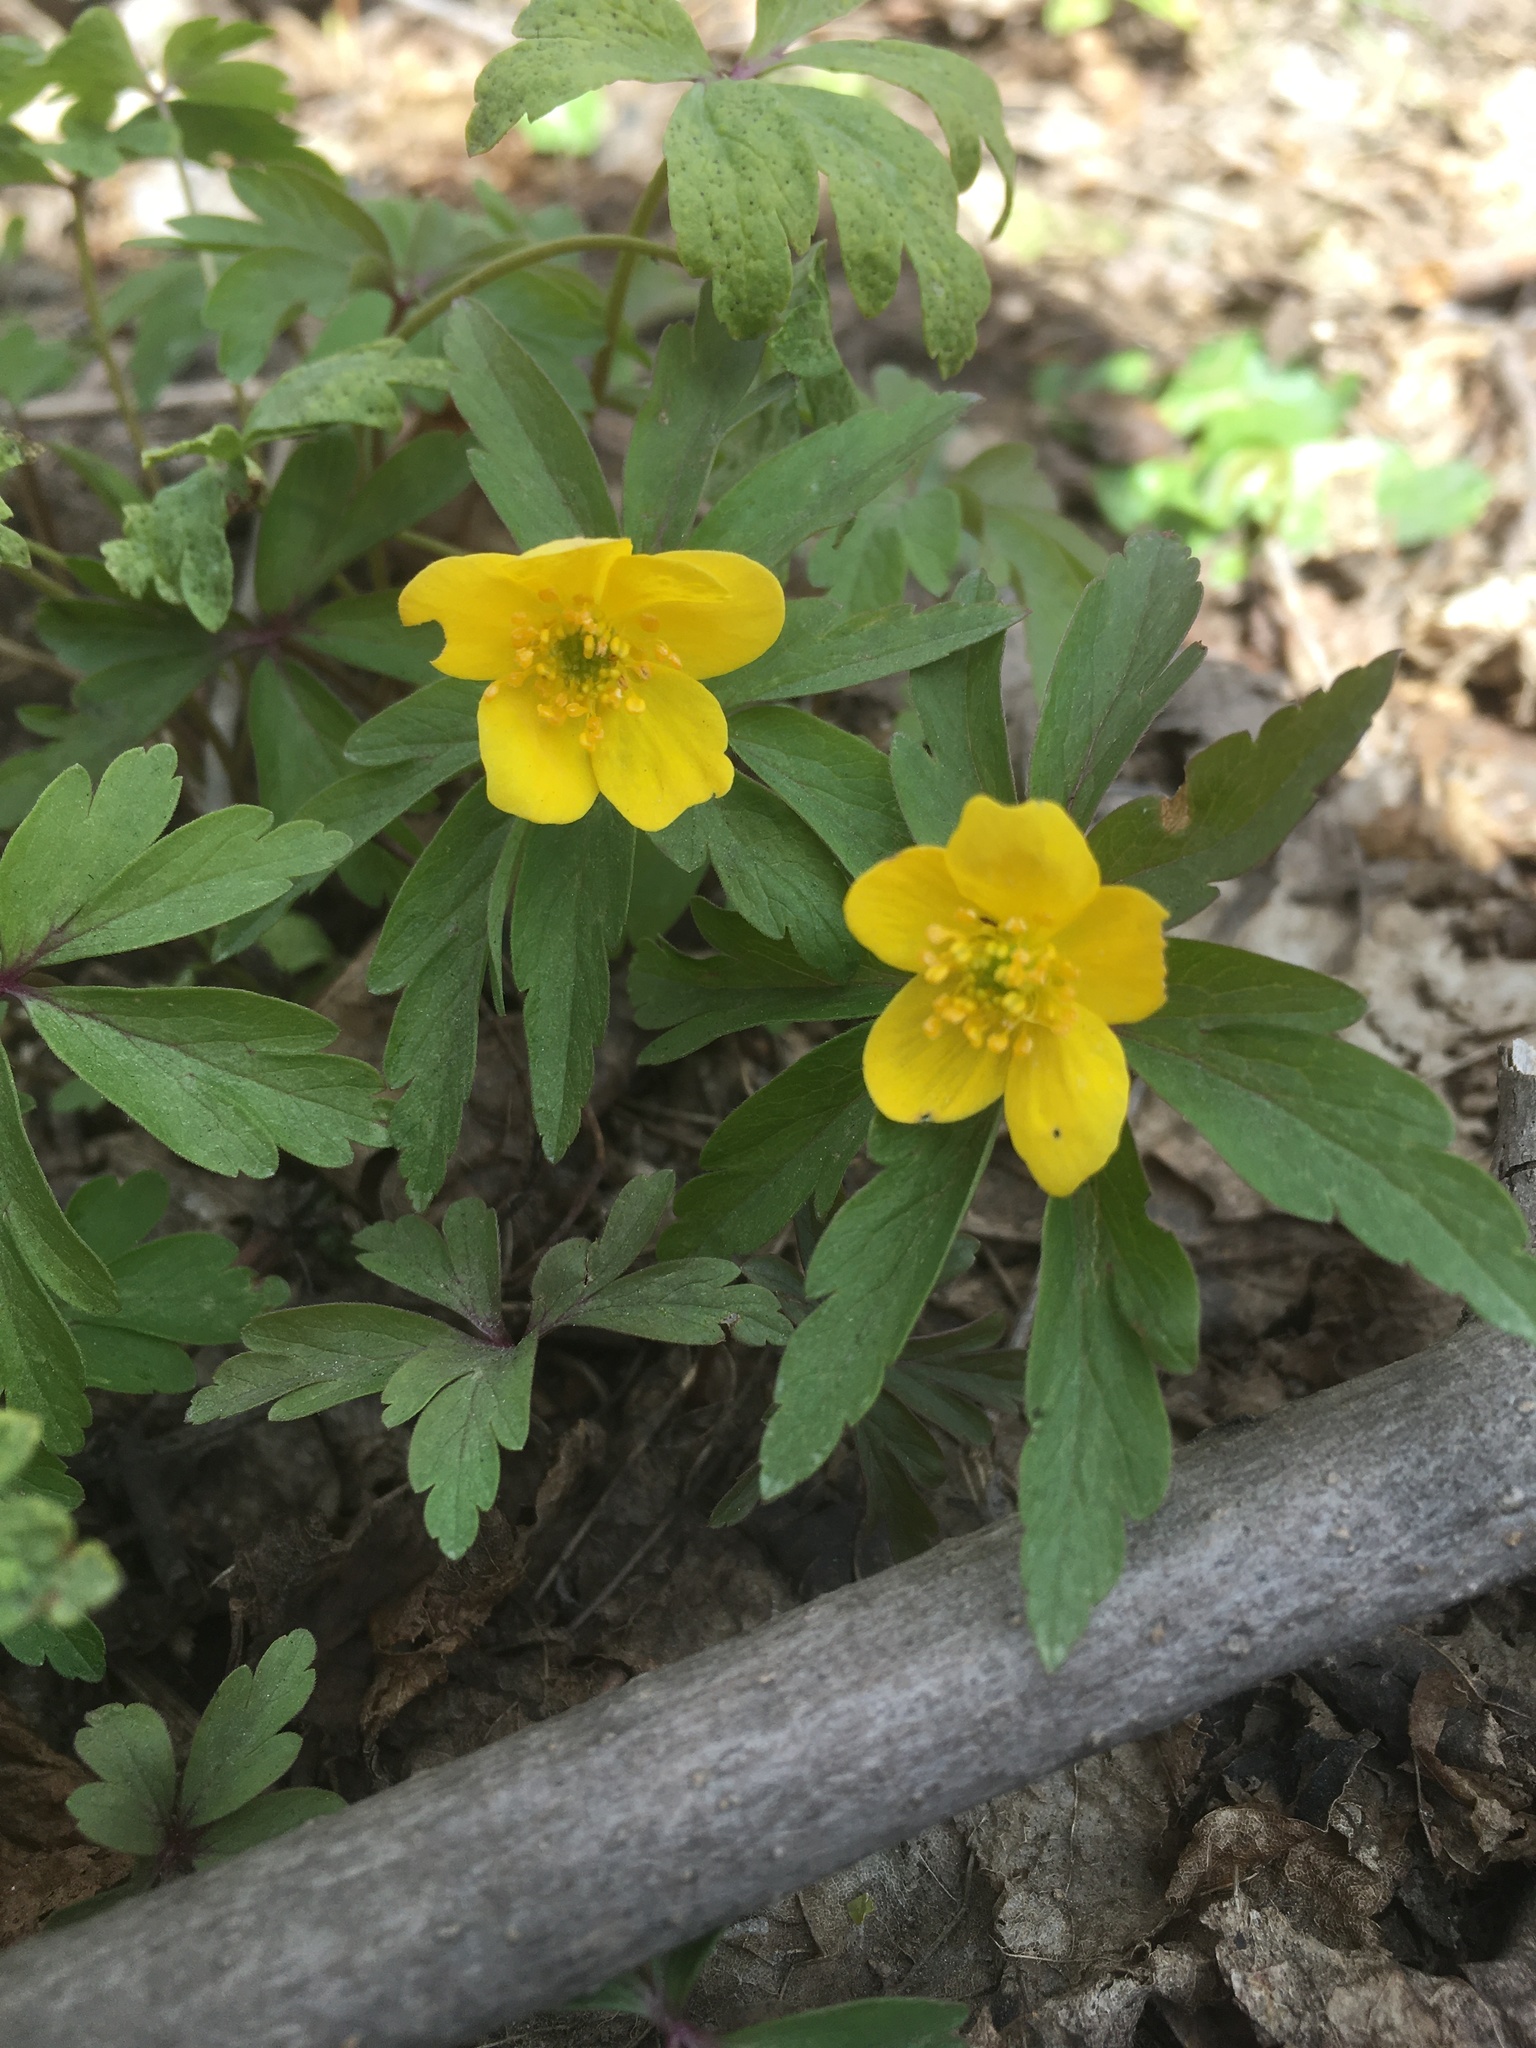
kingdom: Plantae
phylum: Tracheophyta
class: Magnoliopsida
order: Ranunculales
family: Ranunculaceae
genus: Anemone
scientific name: Anemone ranunculoides
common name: Yellow anemone
